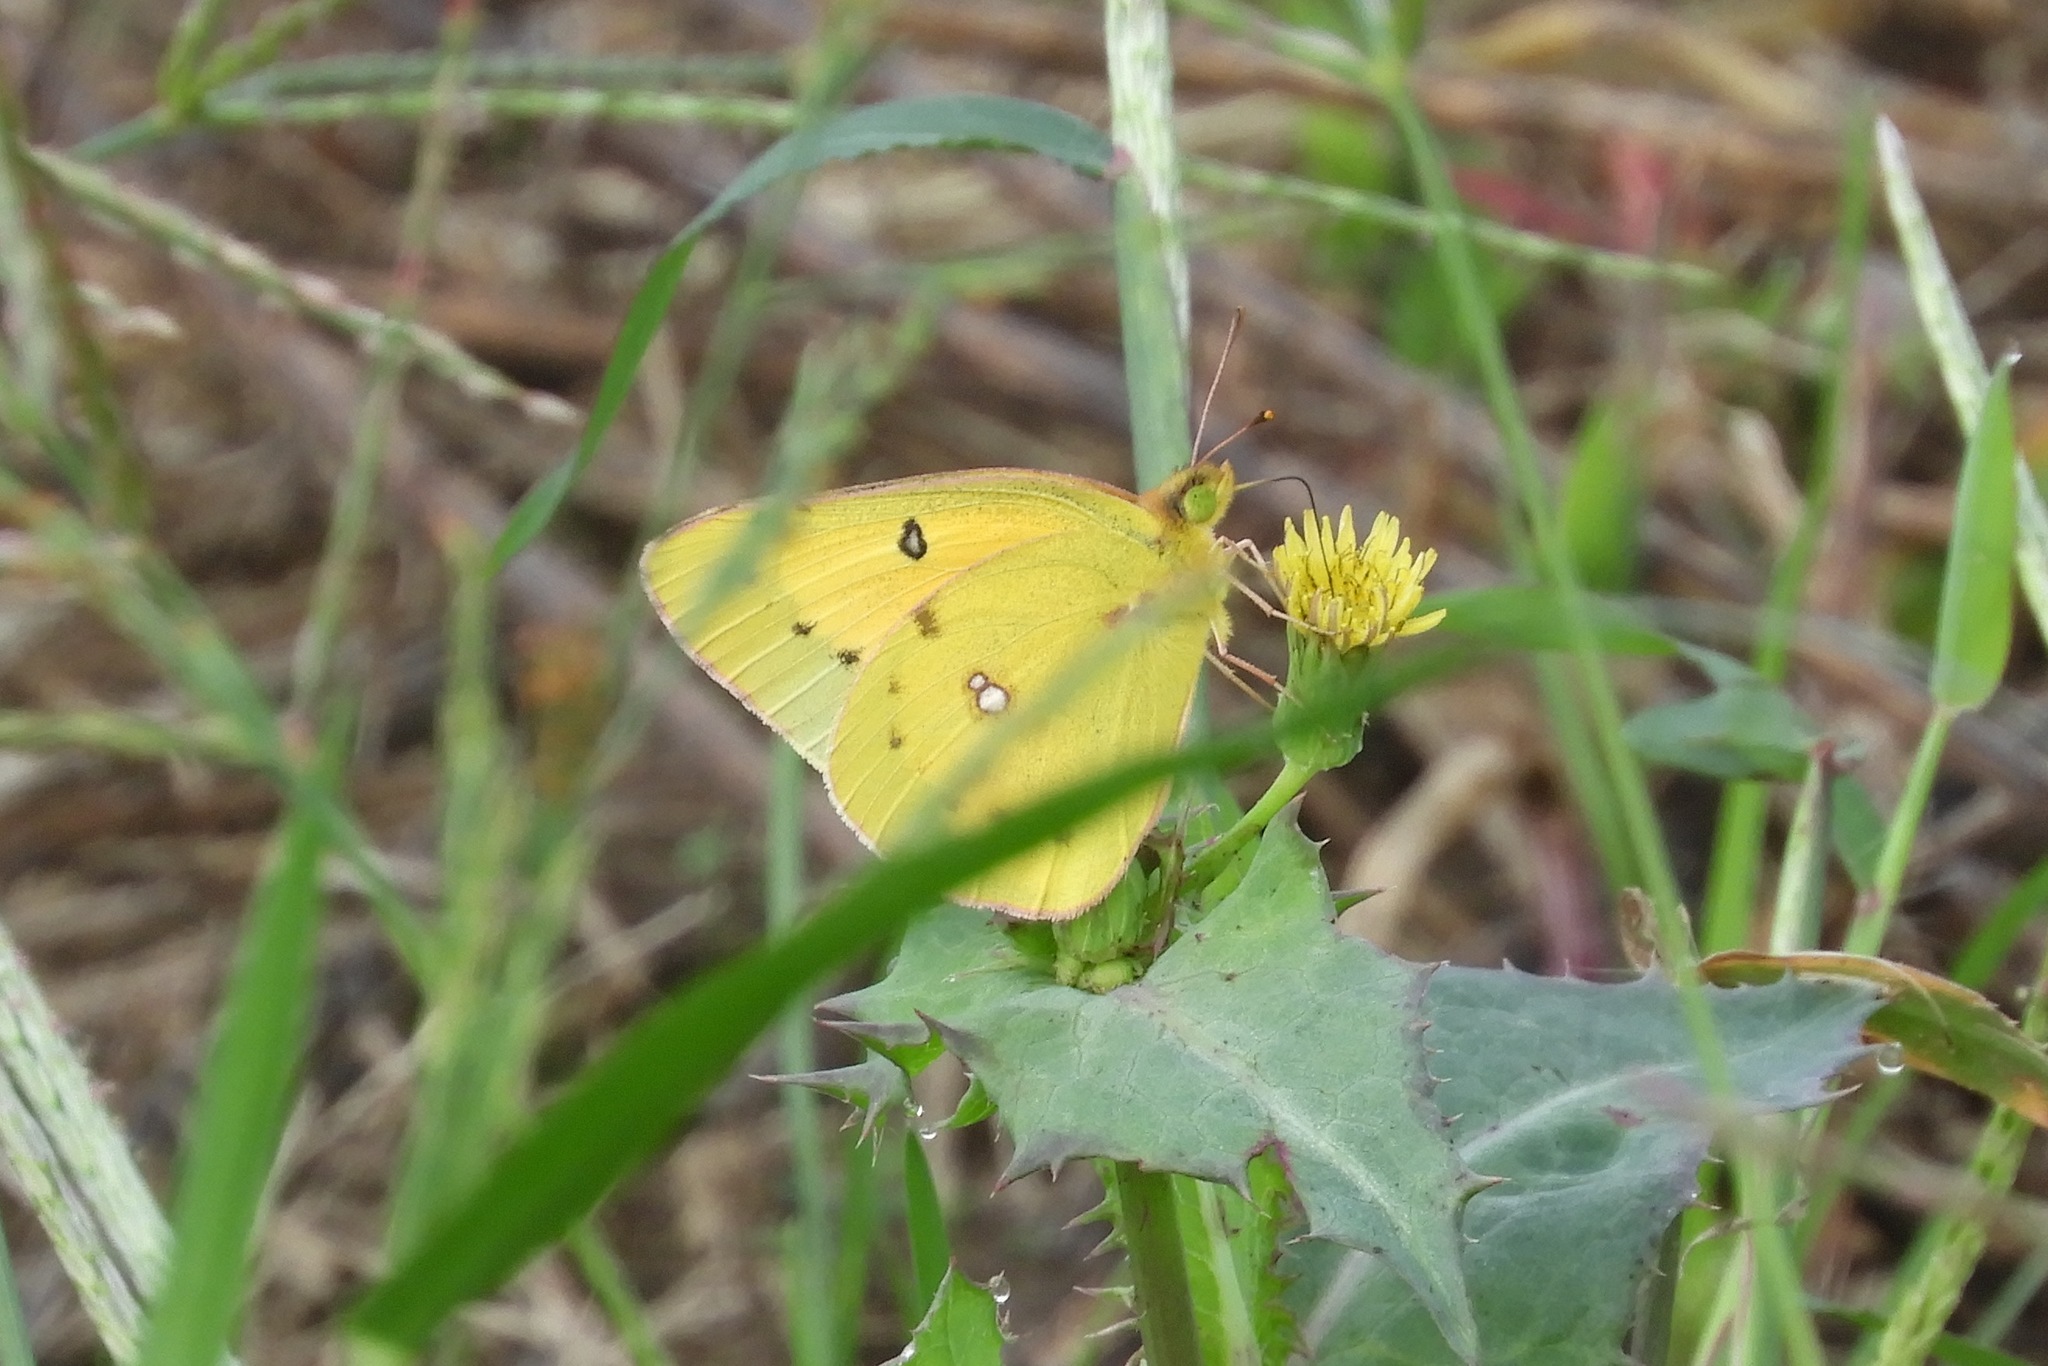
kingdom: Animalia
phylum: Arthropoda
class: Insecta
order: Lepidoptera
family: Pieridae
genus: Colias
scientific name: Colias eurytheme
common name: Alfalfa butterfly
